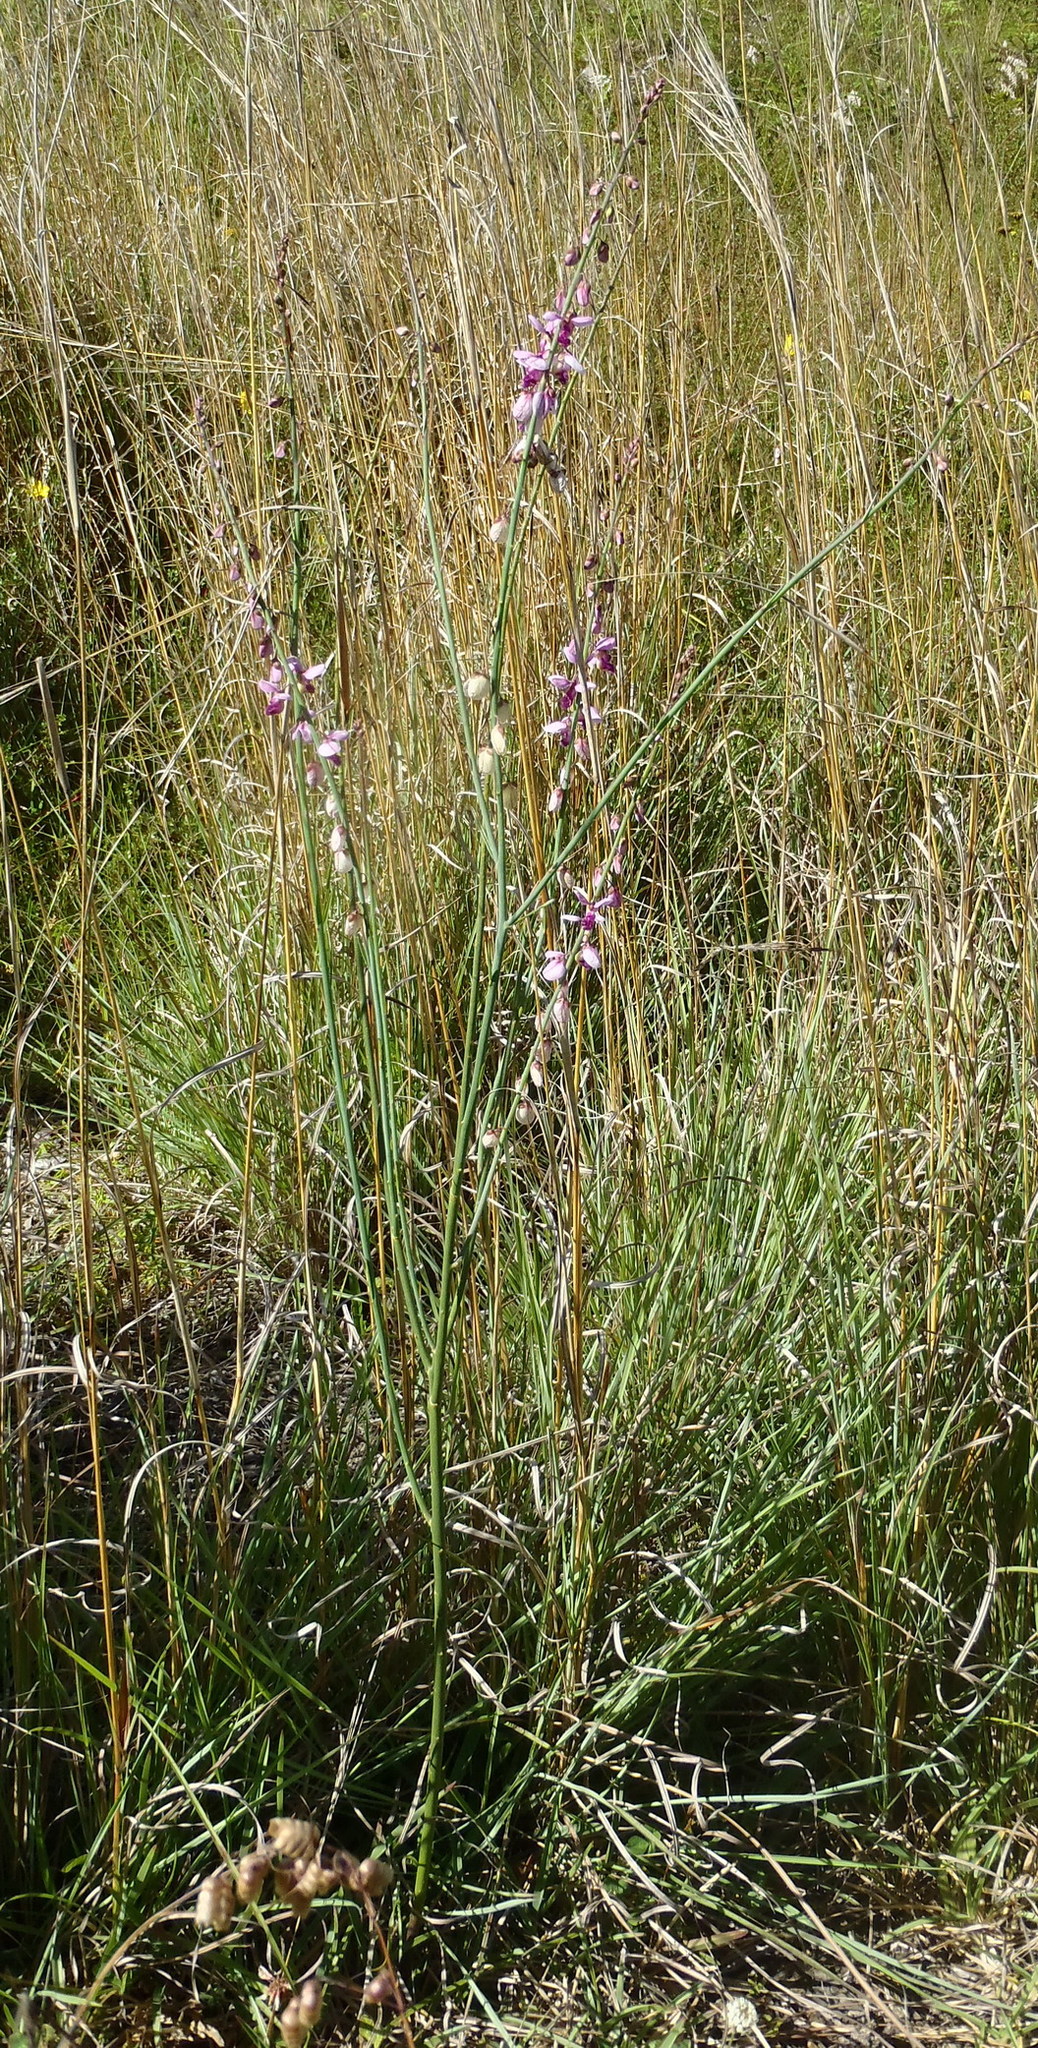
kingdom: Plantae
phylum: Tracheophyta
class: Magnoliopsida
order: Fabales
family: Polygalaceae
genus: Polygala
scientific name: Polygala virgata
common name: Milkwort
